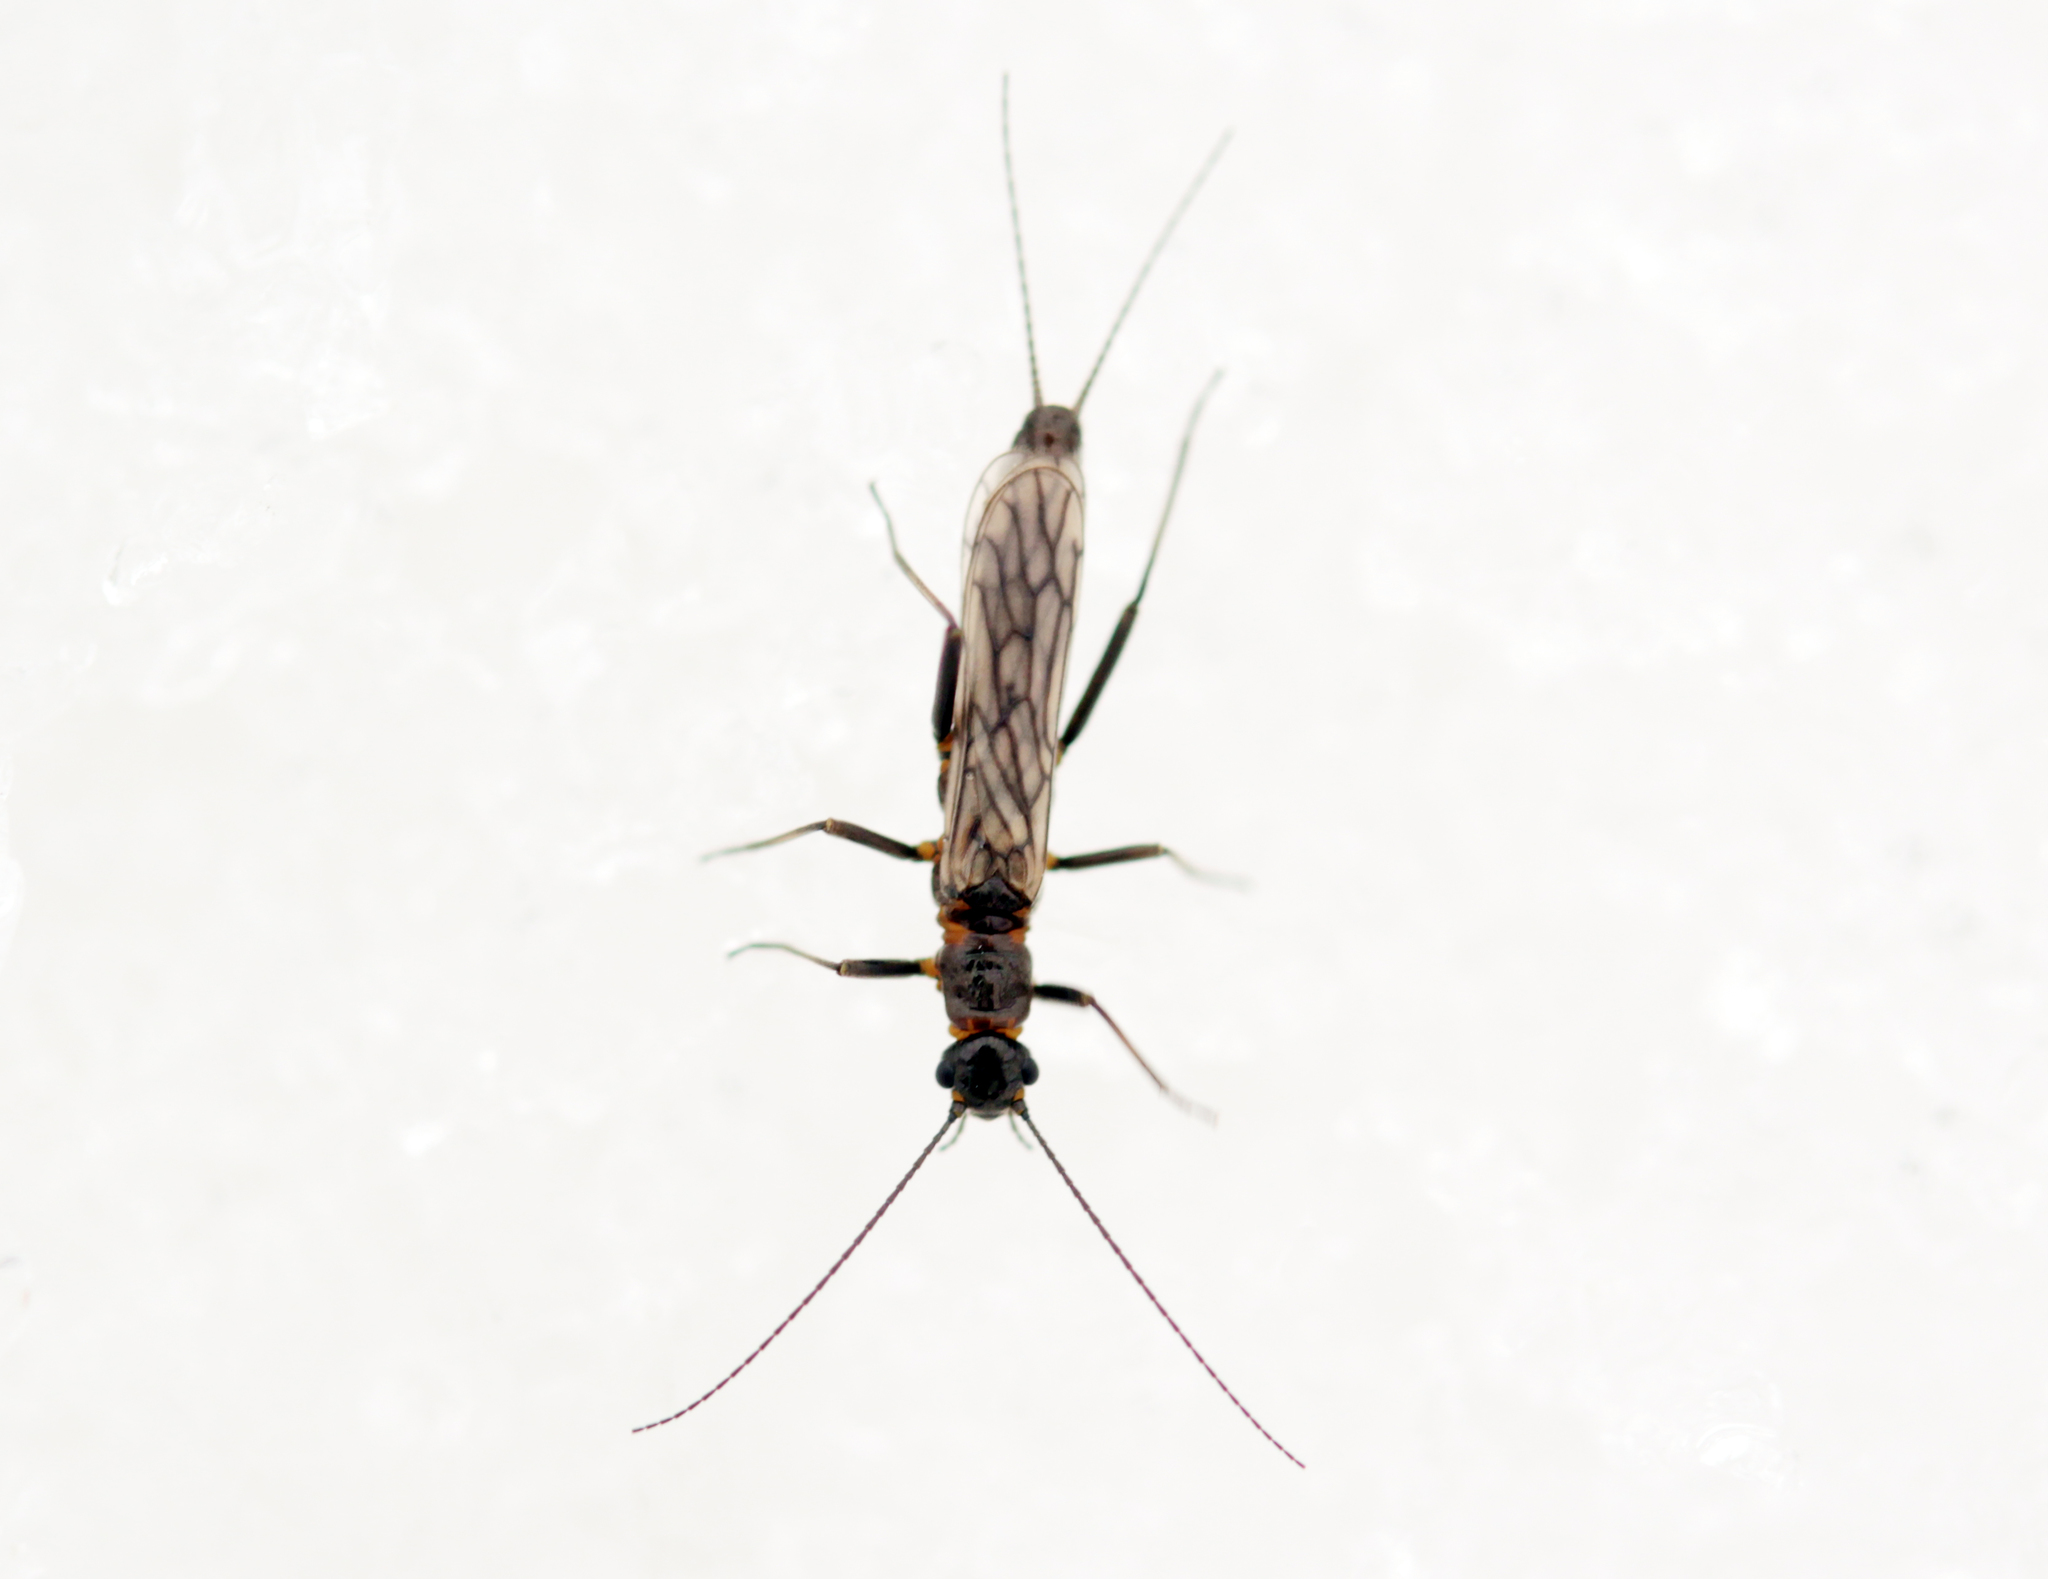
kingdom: Animalia
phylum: Arthropoda
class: Insecta
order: Plecoptera
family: Capniidae
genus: Allocapnia
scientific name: Allocapnia
